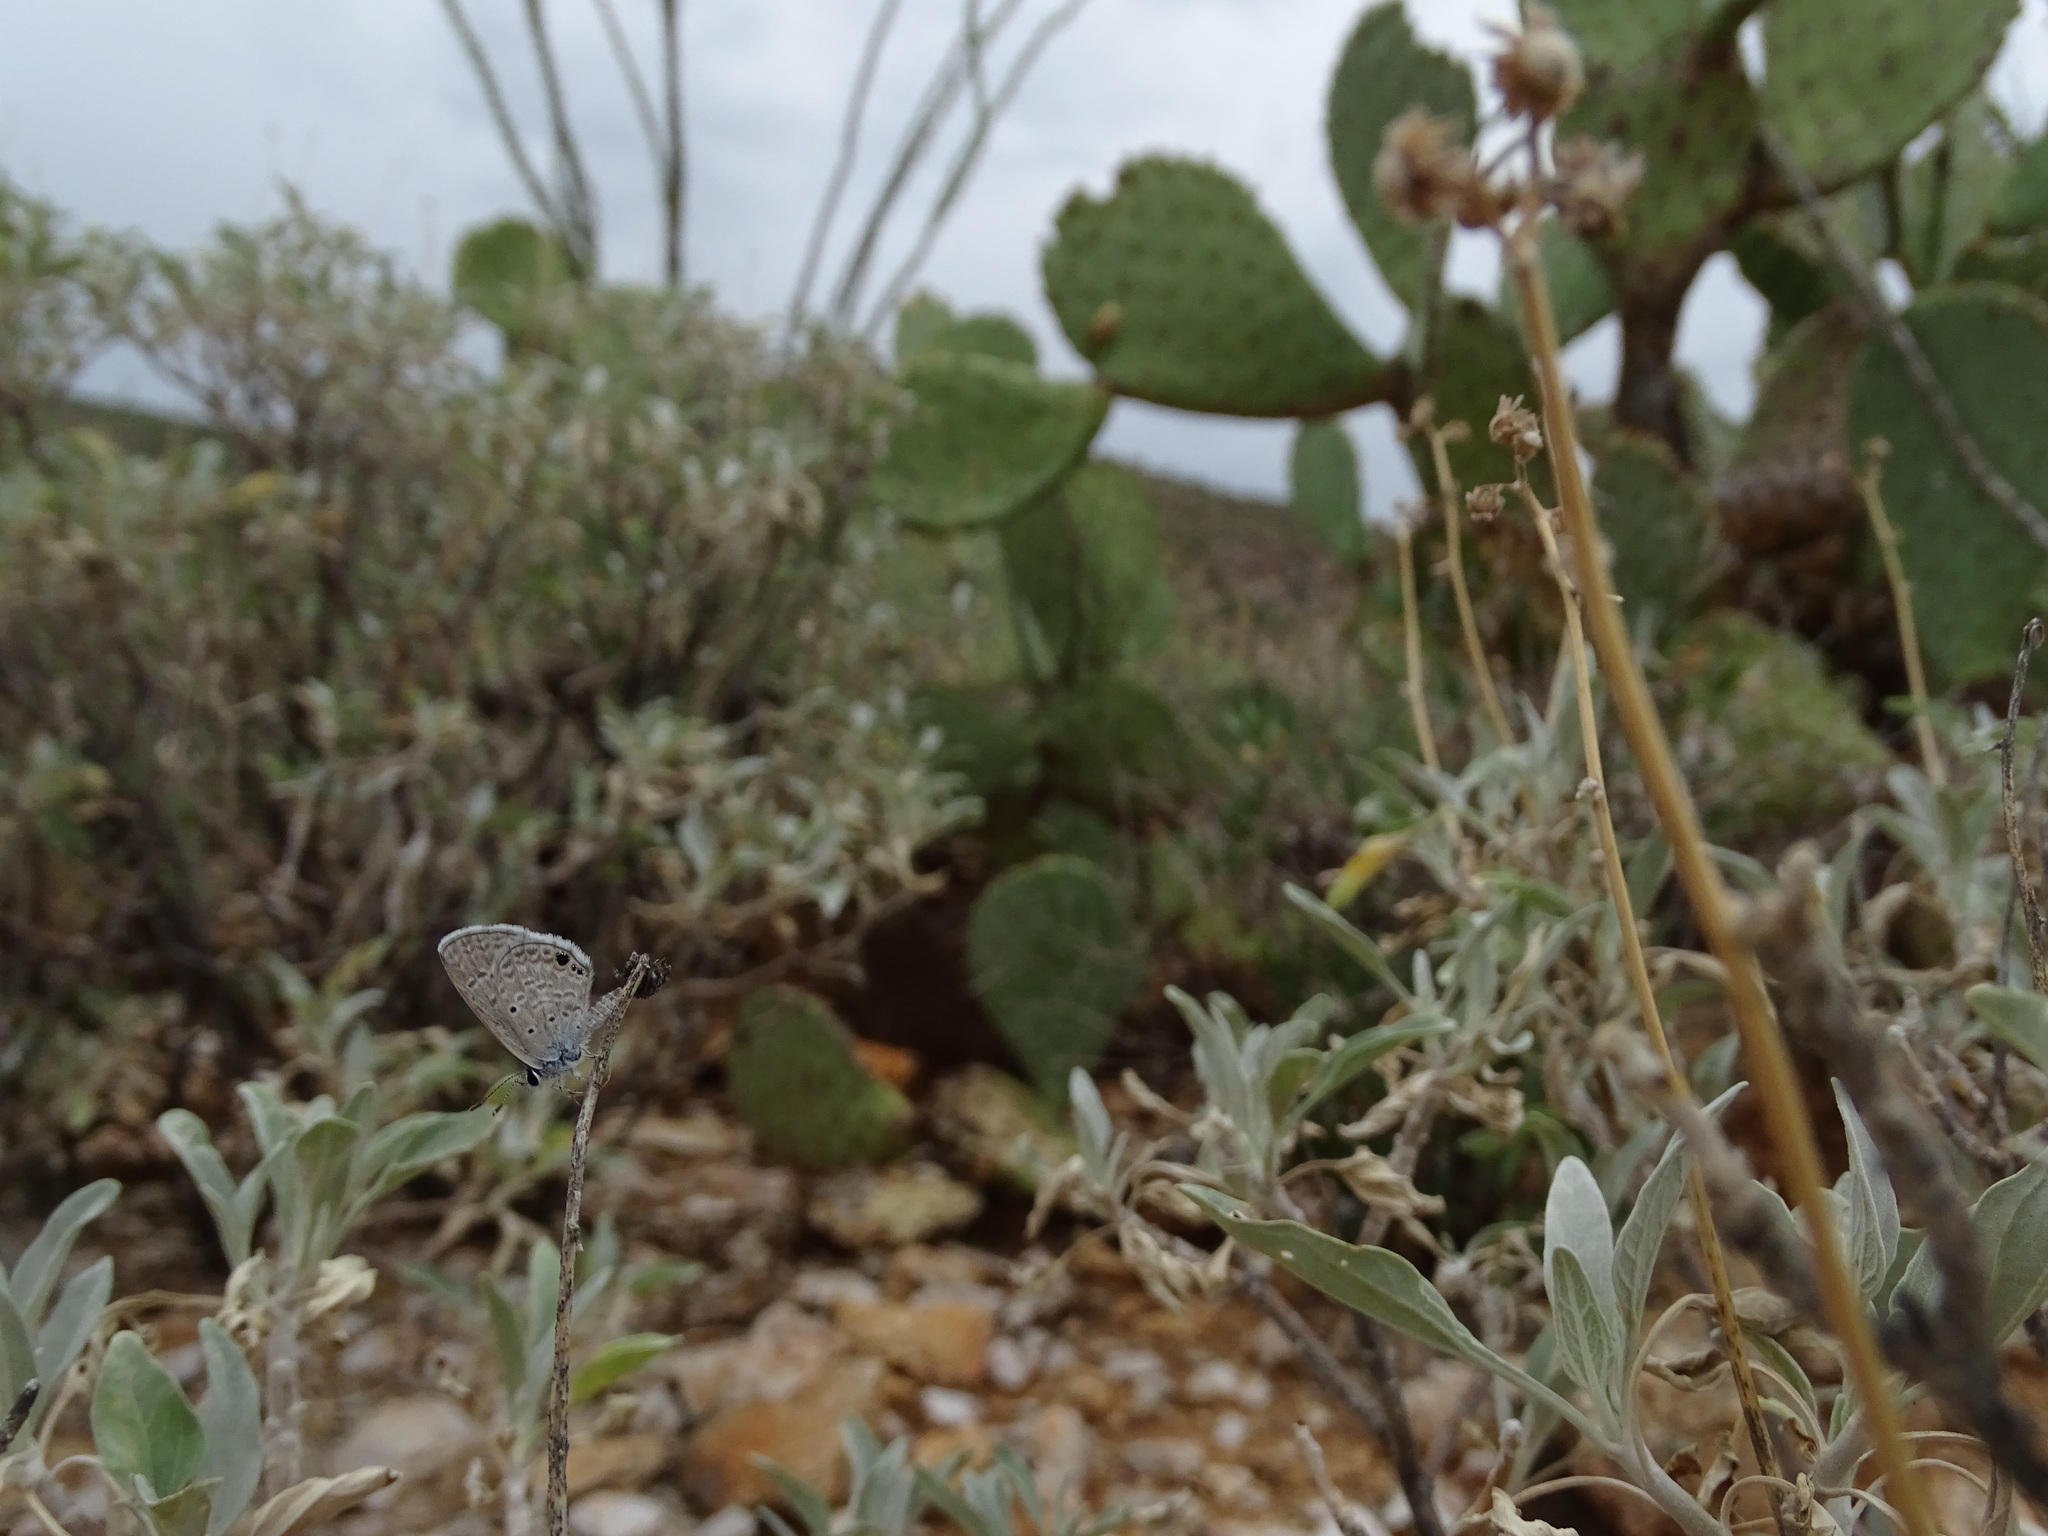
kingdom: Animalia
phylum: Arthropoda
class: Insecta
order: Lepidoptera
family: Lycaenidae
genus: Hemiargus
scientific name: Hemiargus ceraunus
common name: Ceraunus blue
